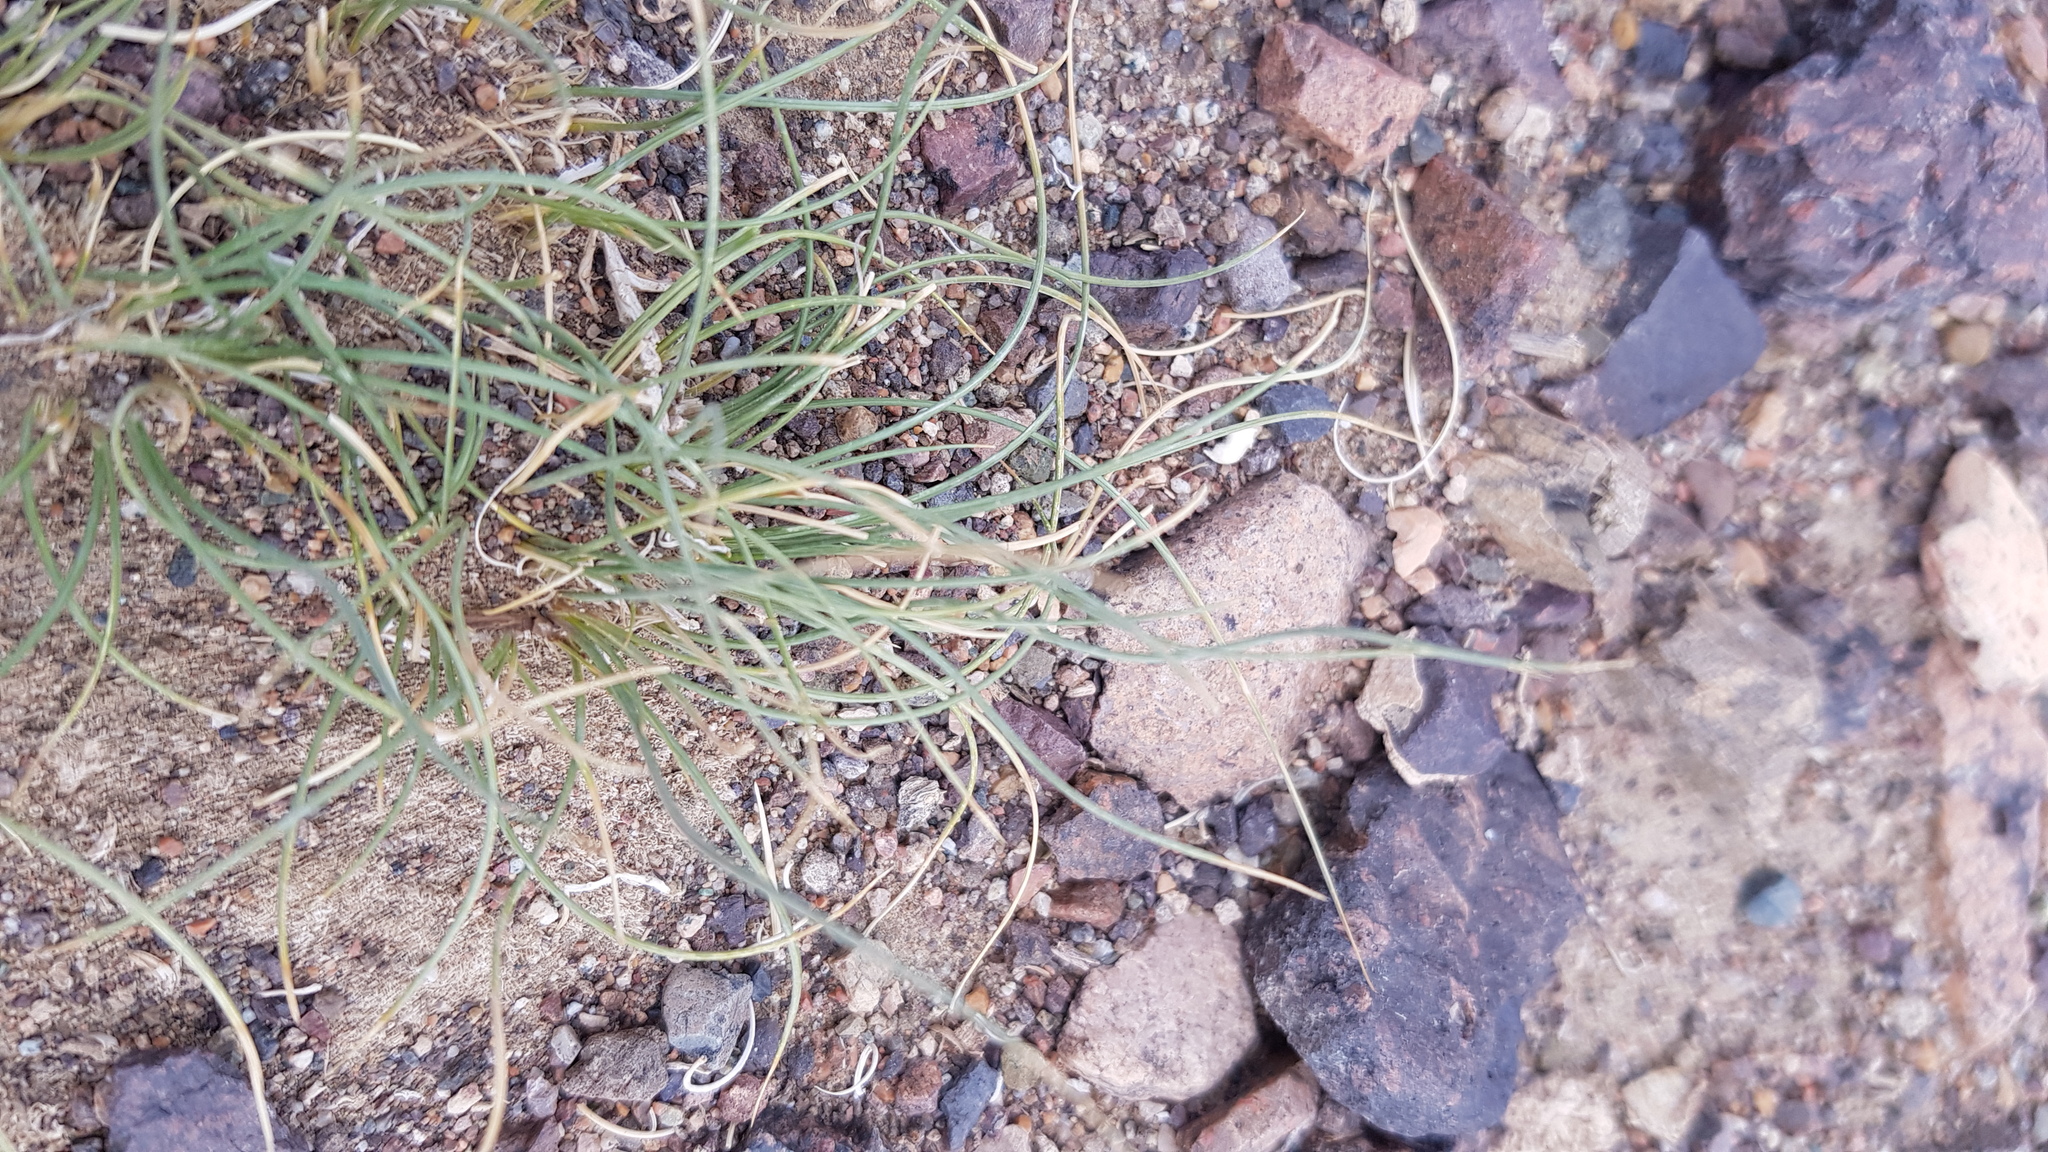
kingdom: Plantae
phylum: Tracheophyta
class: Liliopsida
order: Poales
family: Poaceae
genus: Stipa
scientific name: Stipa tianschanica
